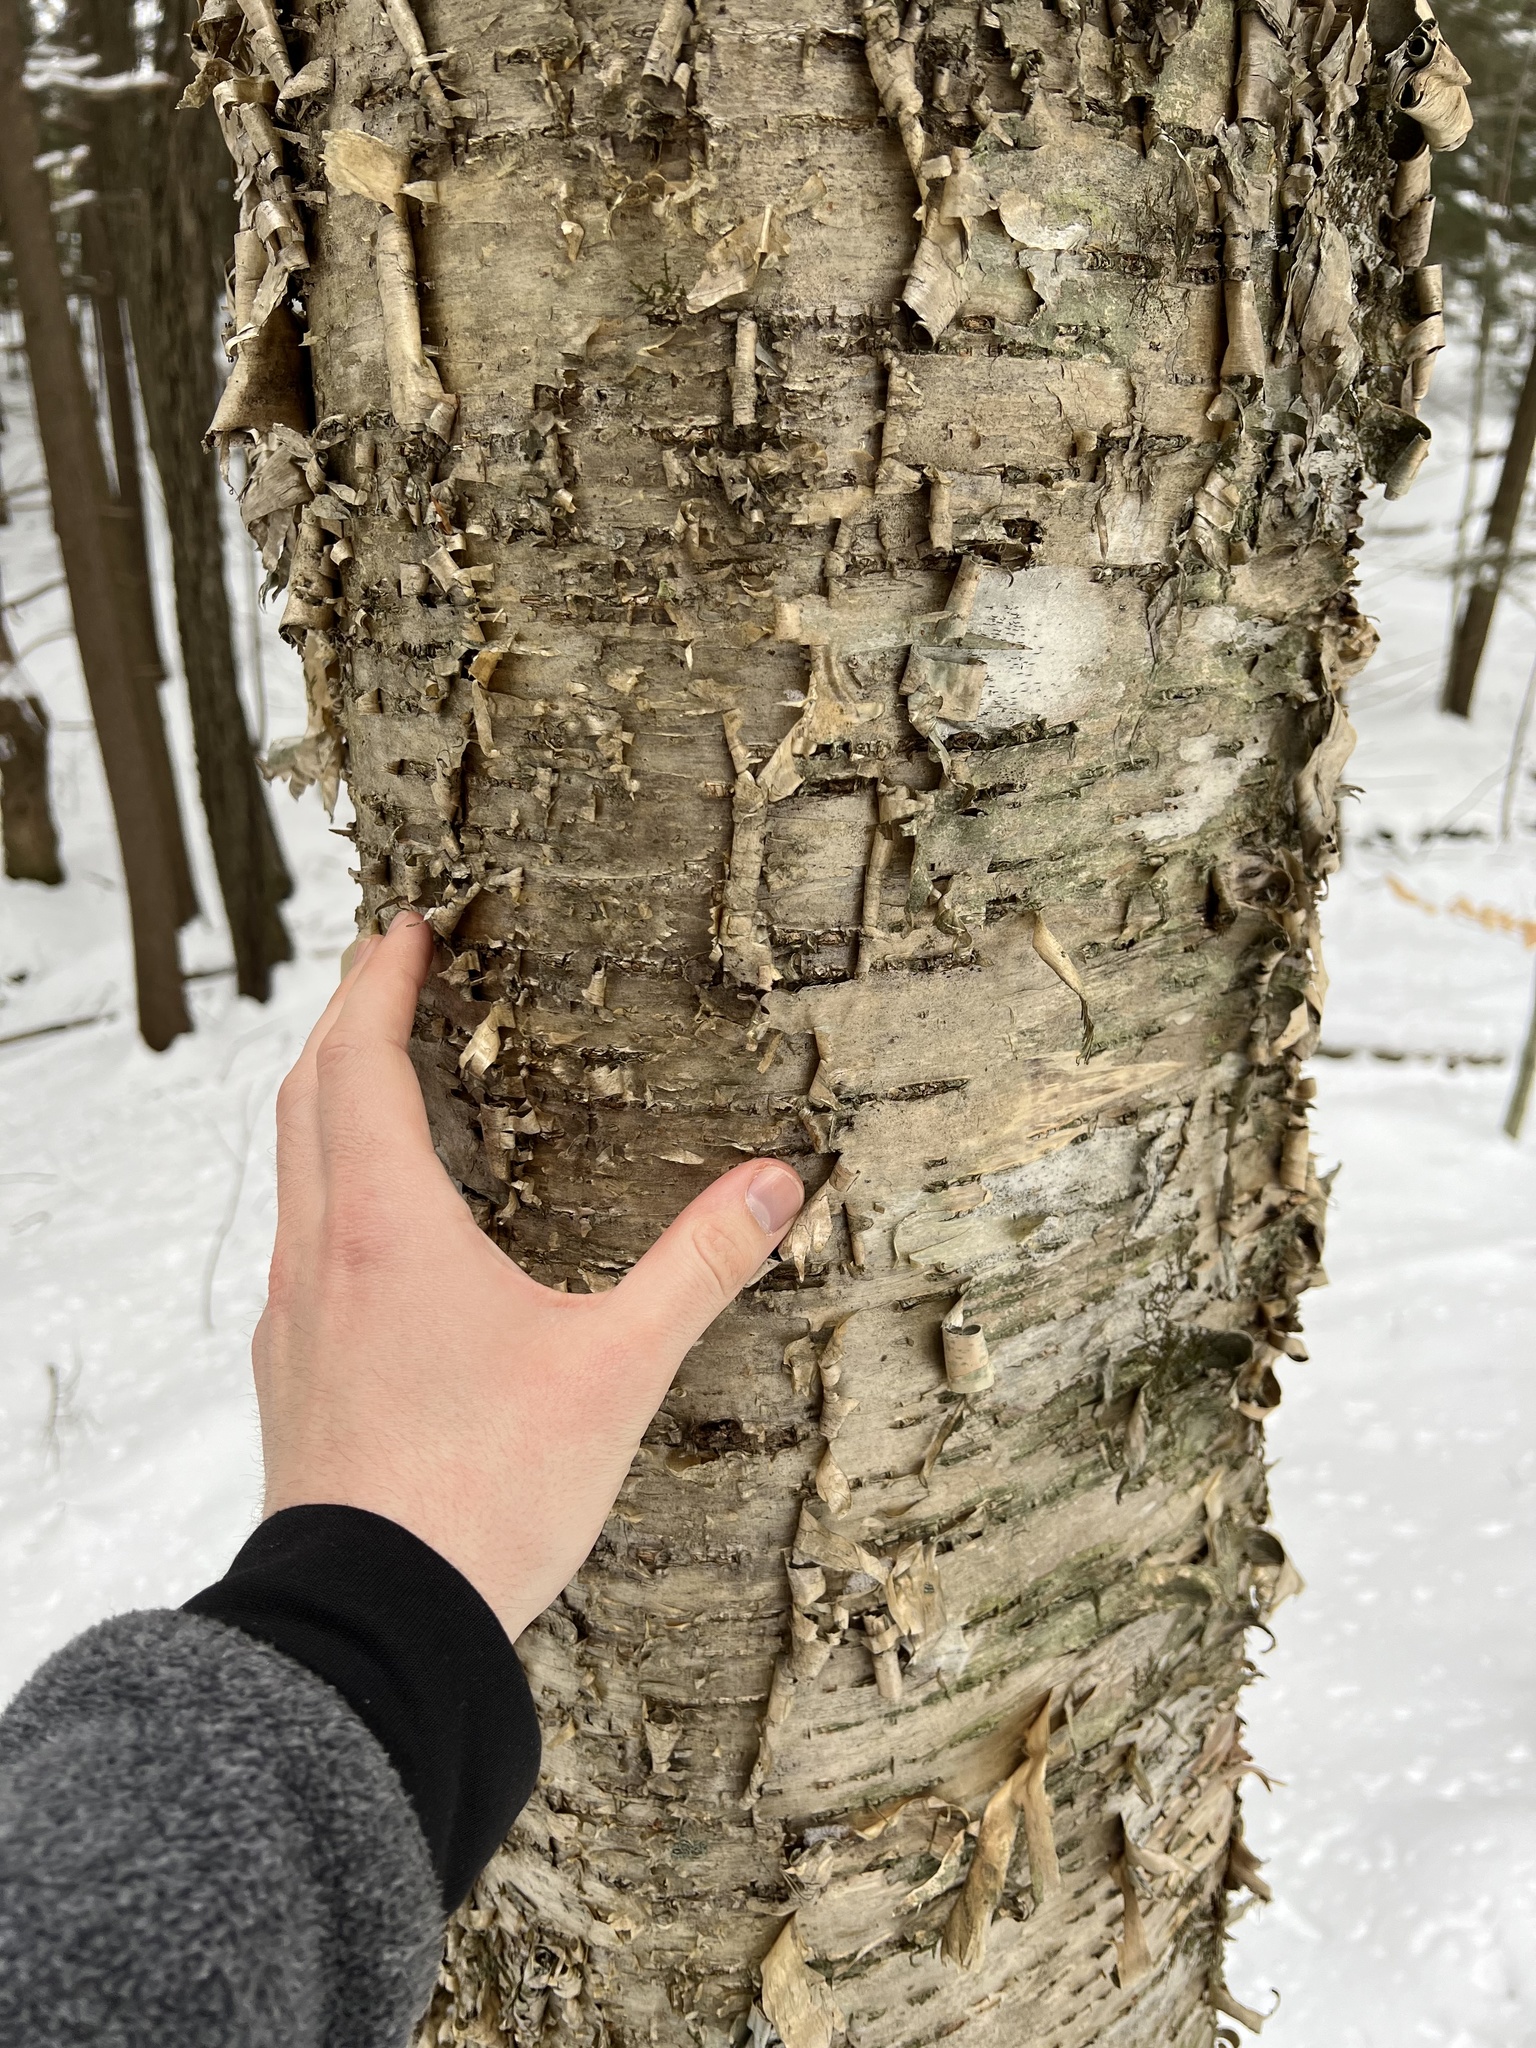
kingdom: Plantae
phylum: Tracheophyta
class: Magnoliopsida
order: Fagales
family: Betulaceae
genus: Betula
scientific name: Betula alleghaniensis
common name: Yellow birch
